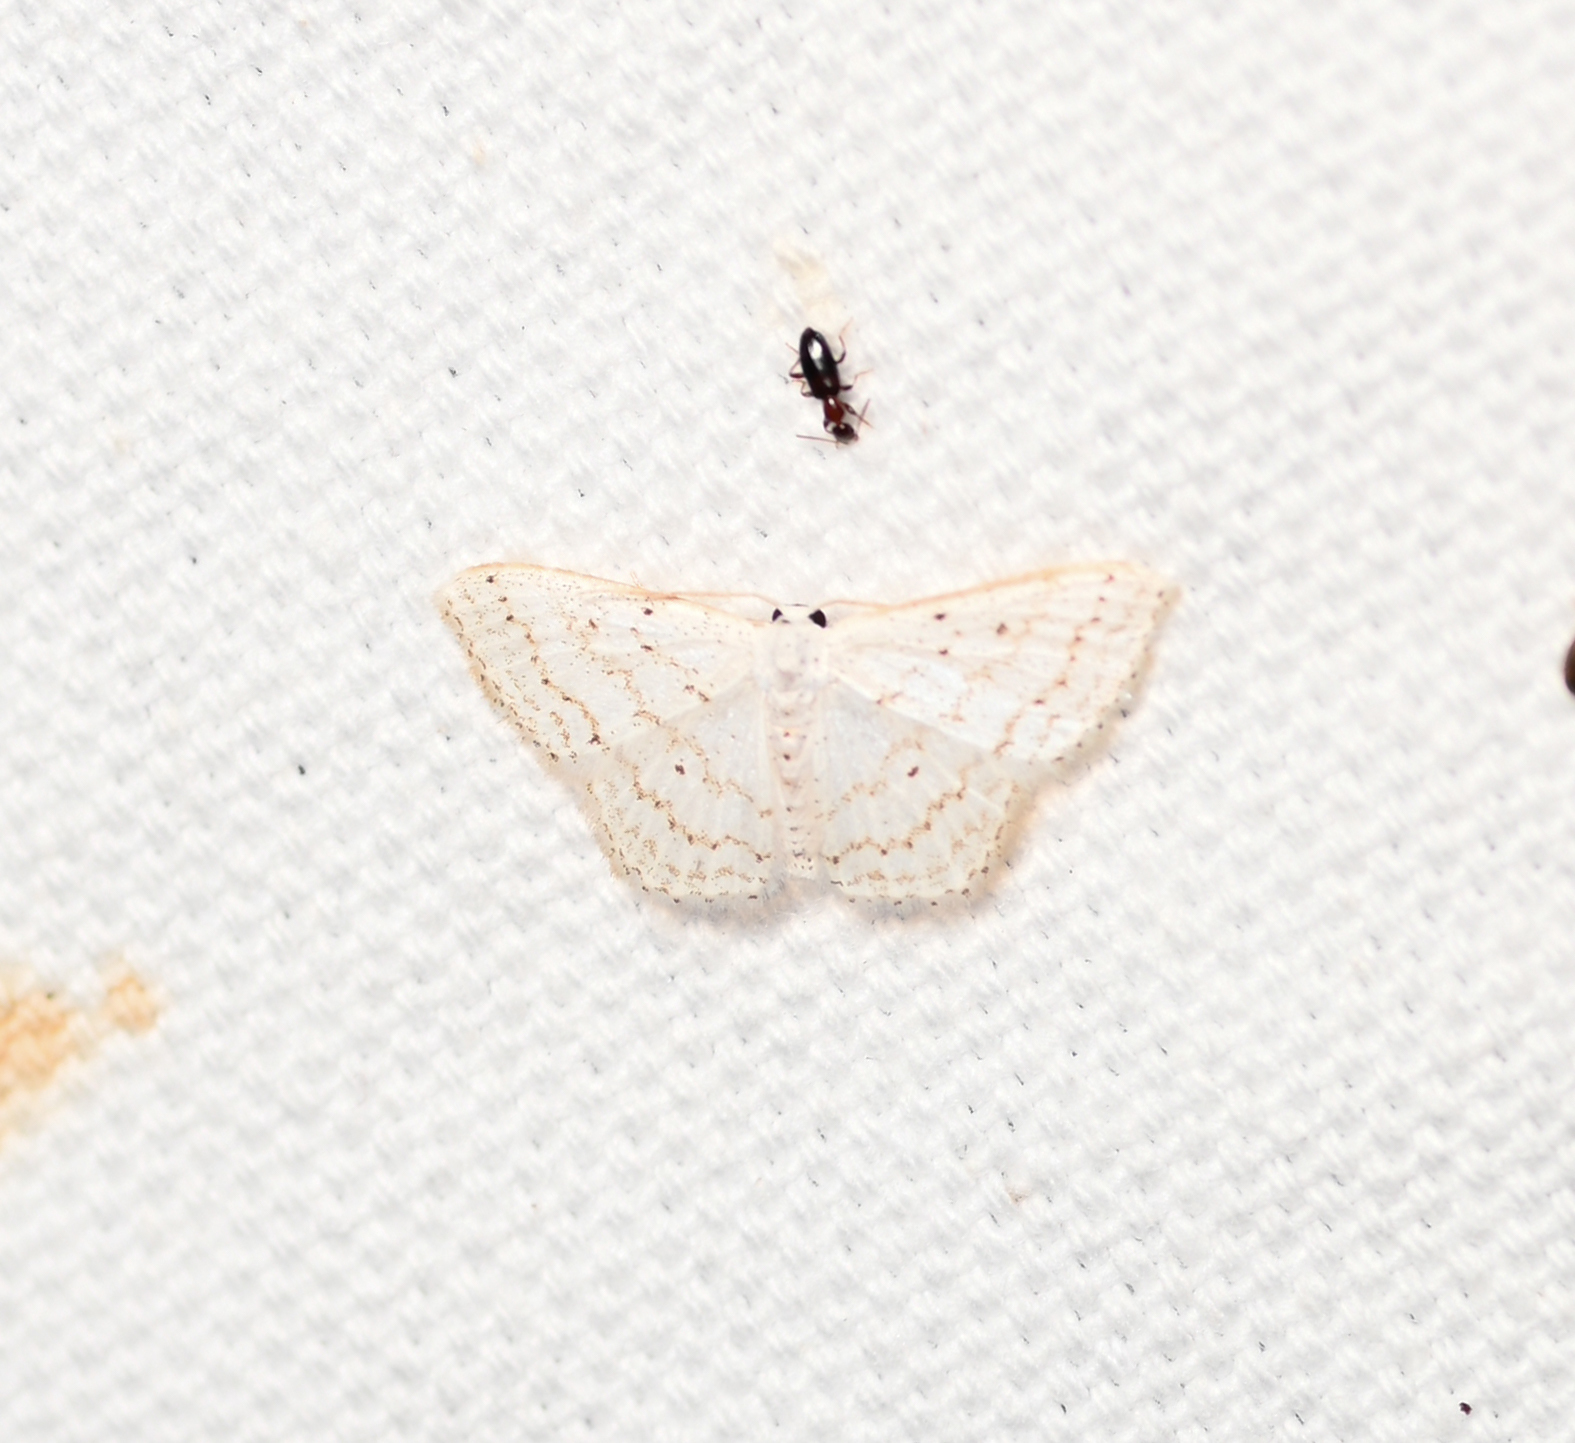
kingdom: Animalia
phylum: Arthropoda
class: Insecta
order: Lepidoptera
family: Geometridae
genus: Idaea
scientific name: Idaea tacturata
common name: Dot-lined wave
